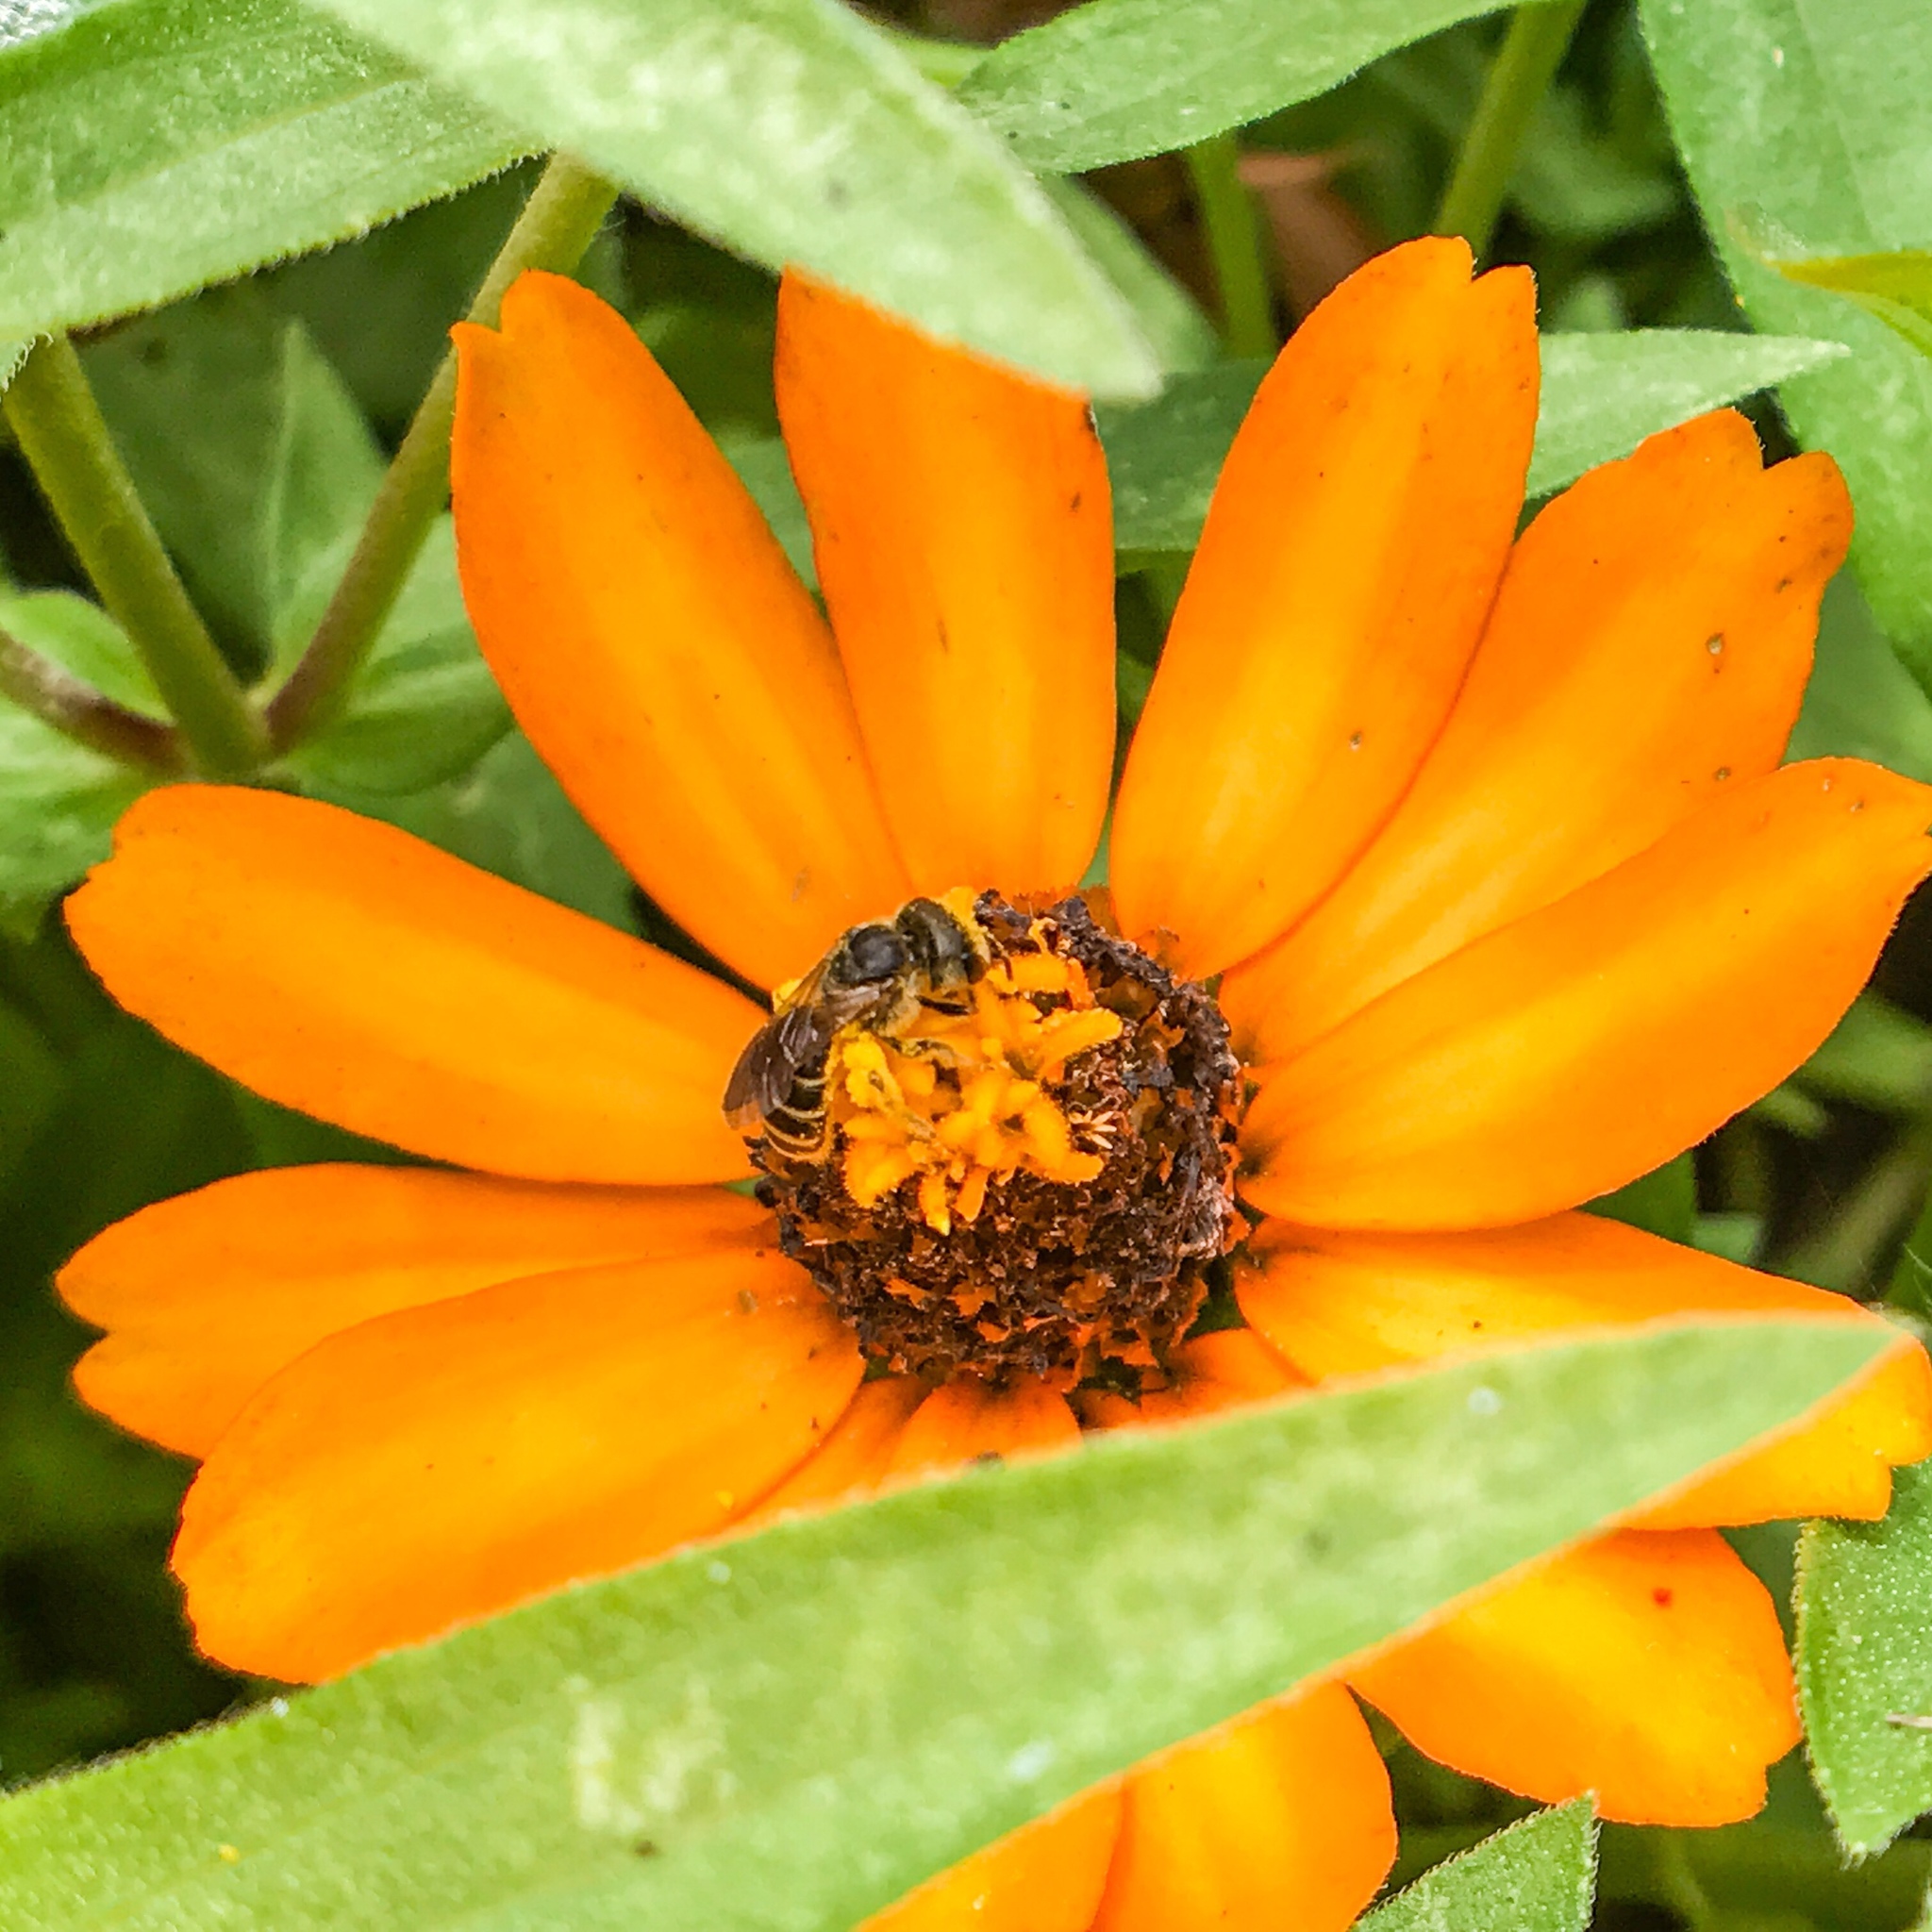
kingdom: Animalia
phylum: Arthropoda
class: Insecta
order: Hymenoptera
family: Halictidae
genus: Halictus
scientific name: Halictus poeyi
